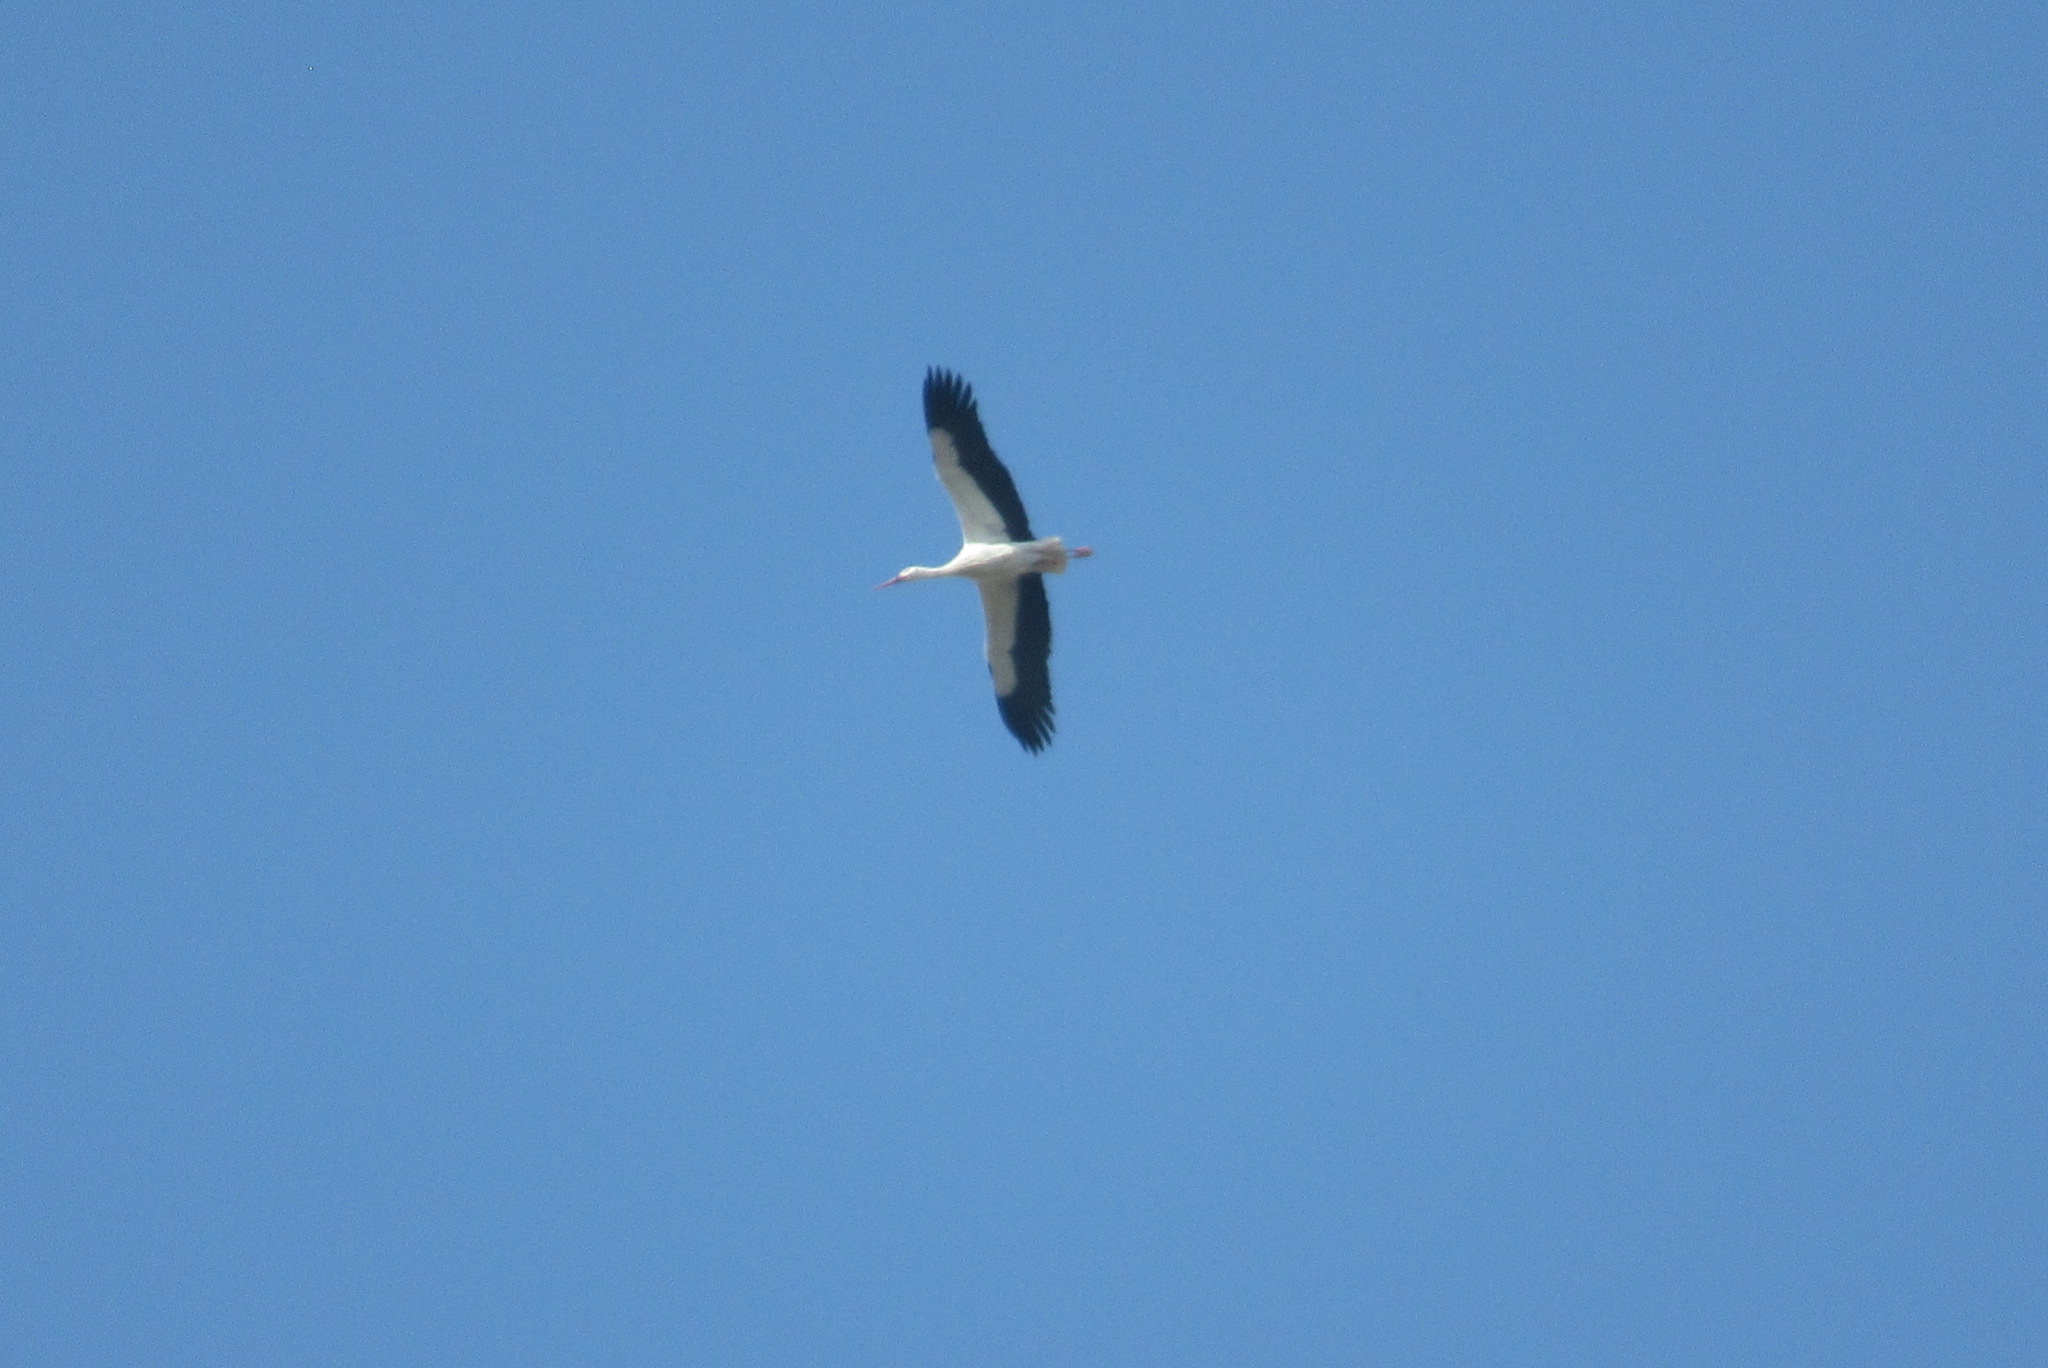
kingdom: Animalia
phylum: Chordata
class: Aves
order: Ciconiiformes
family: Ciconiidae
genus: Ciconia
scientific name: Ciconia ciconia
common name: White stork
